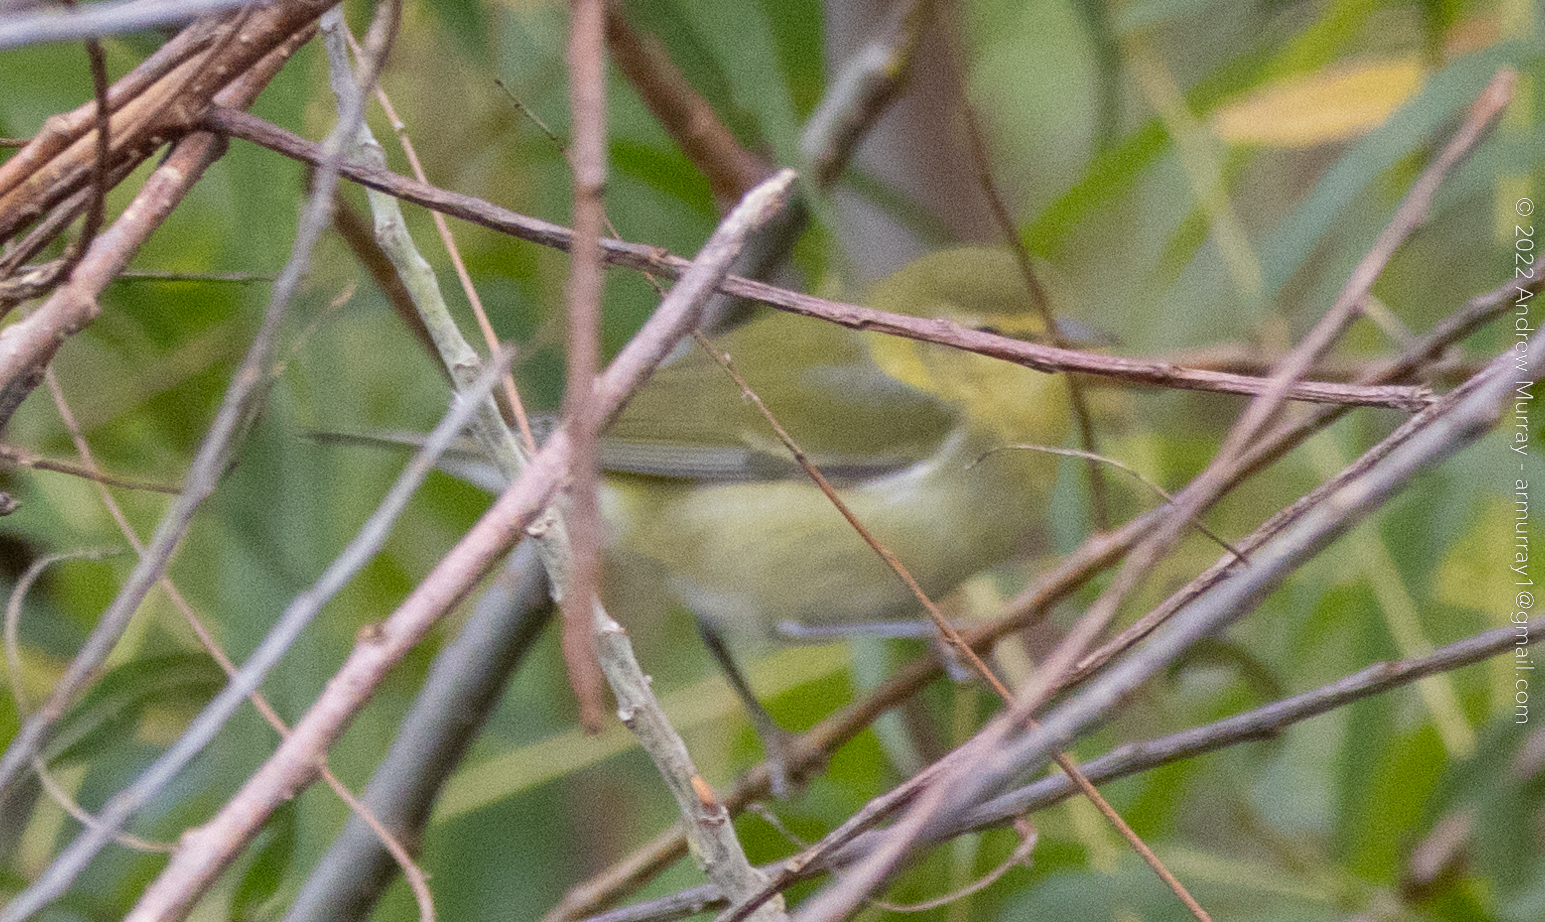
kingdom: Animalia
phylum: Chordata
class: Aves
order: Passeriformes
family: Parulidae
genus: Leiothlypis
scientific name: Leiothlypis peregrina
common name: Tennessee warbler
